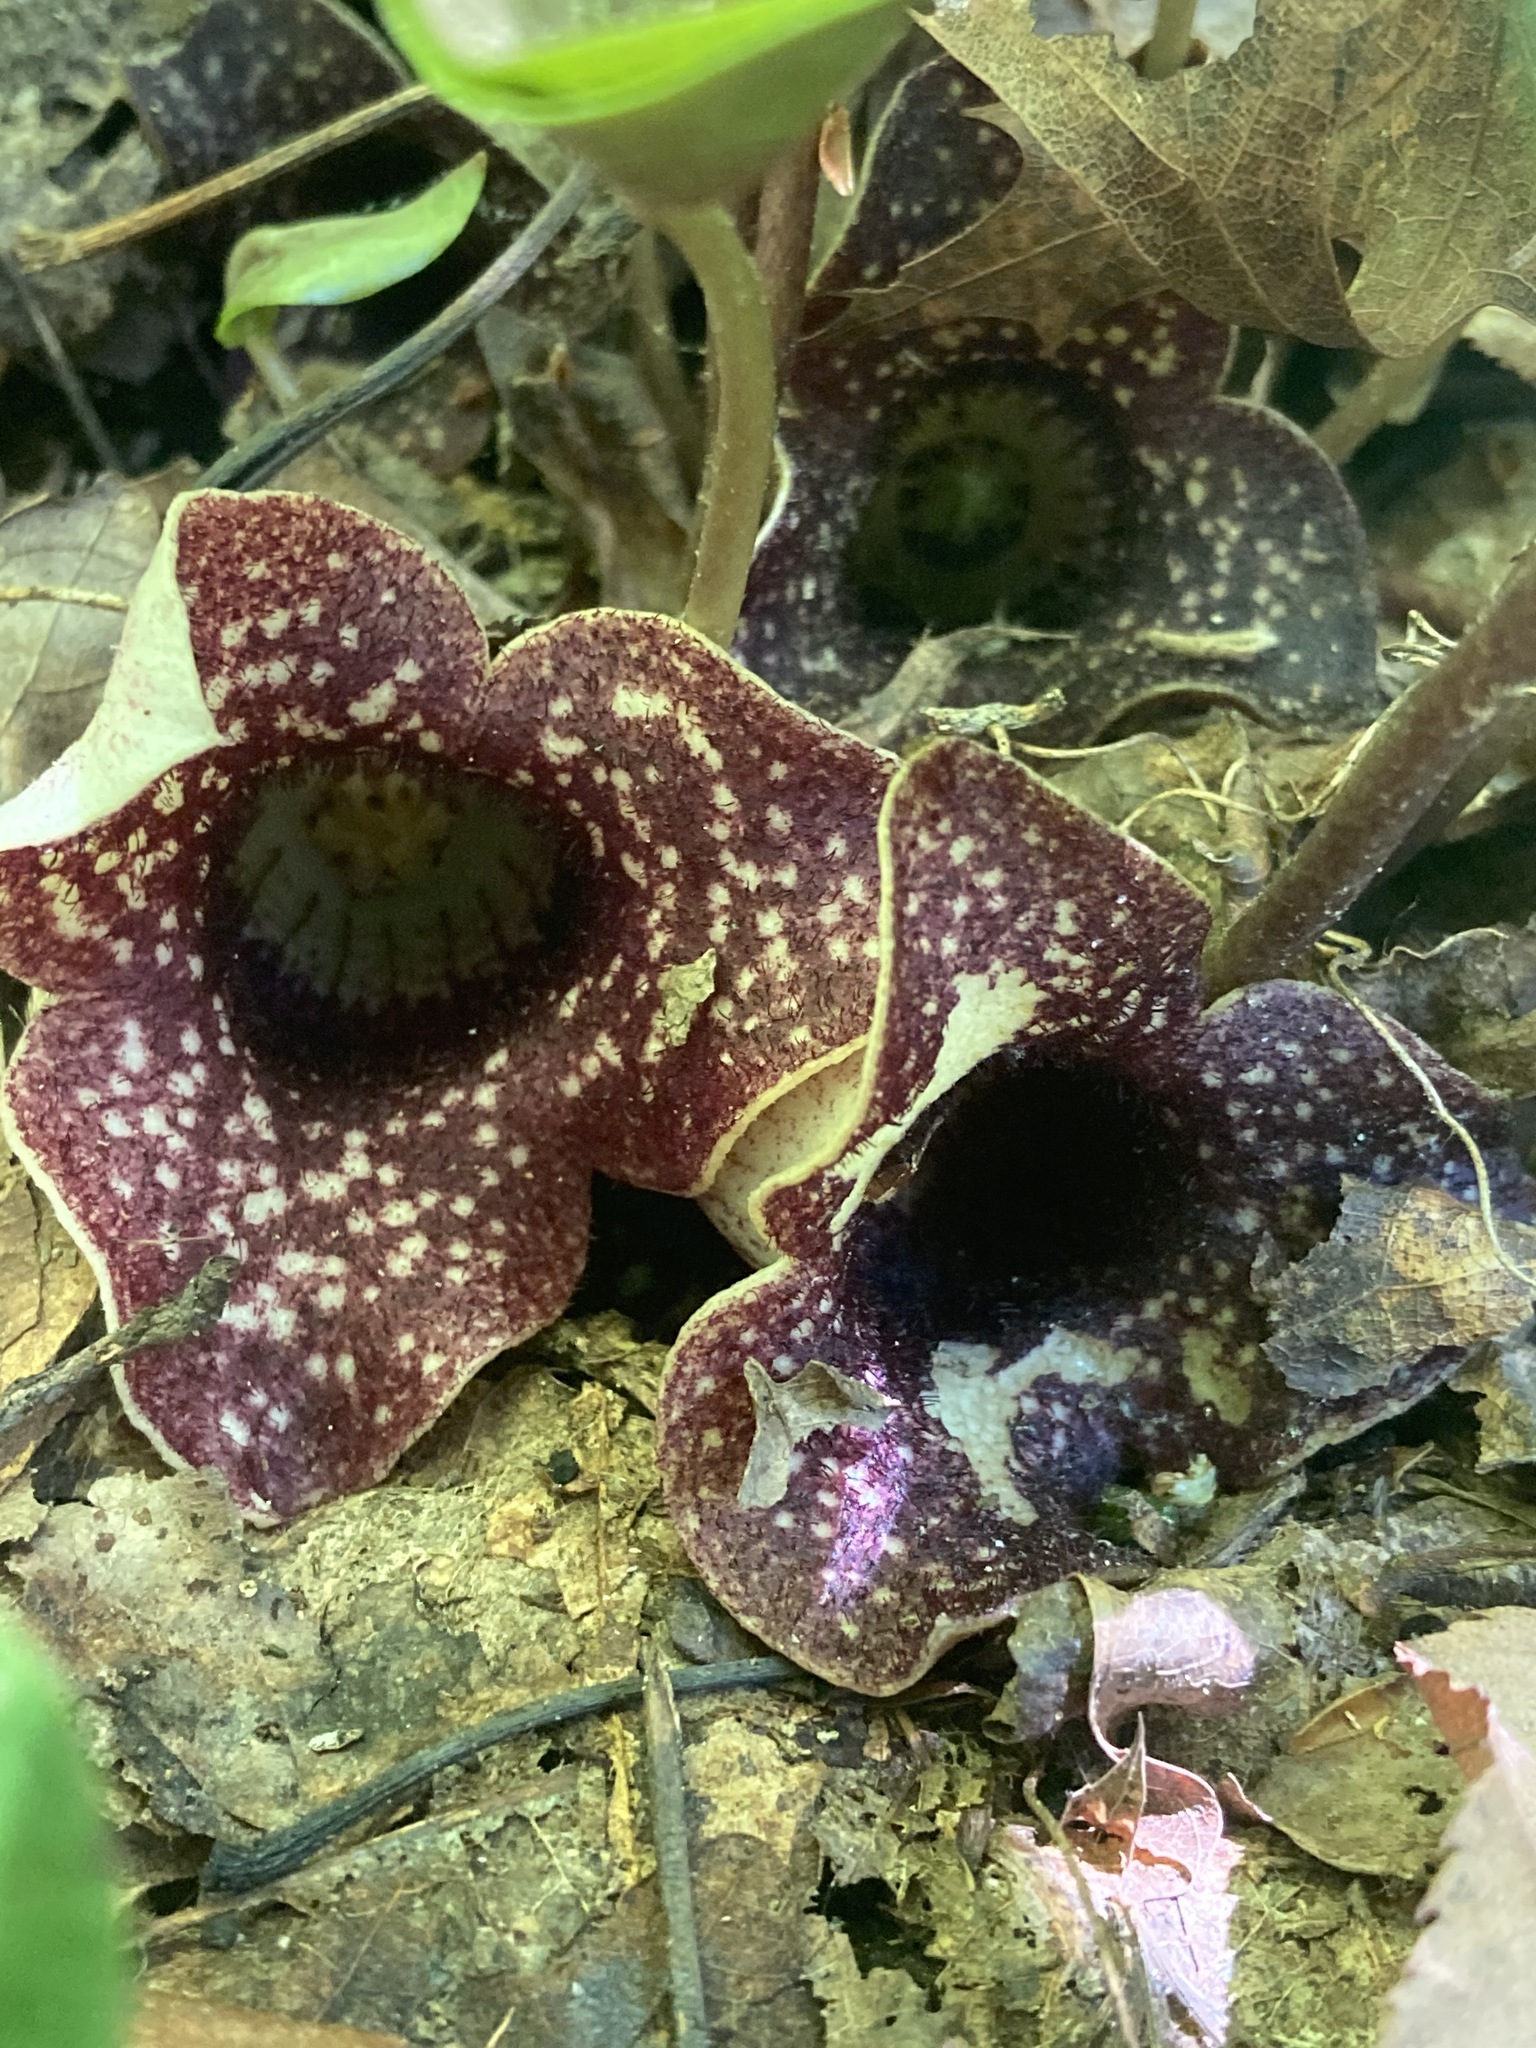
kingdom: Plantae
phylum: Tracheophyta
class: Magnoliopsida
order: Piperales
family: Aristolochiaceae
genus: Hexastylis
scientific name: Hexastylis shuttleworthii
